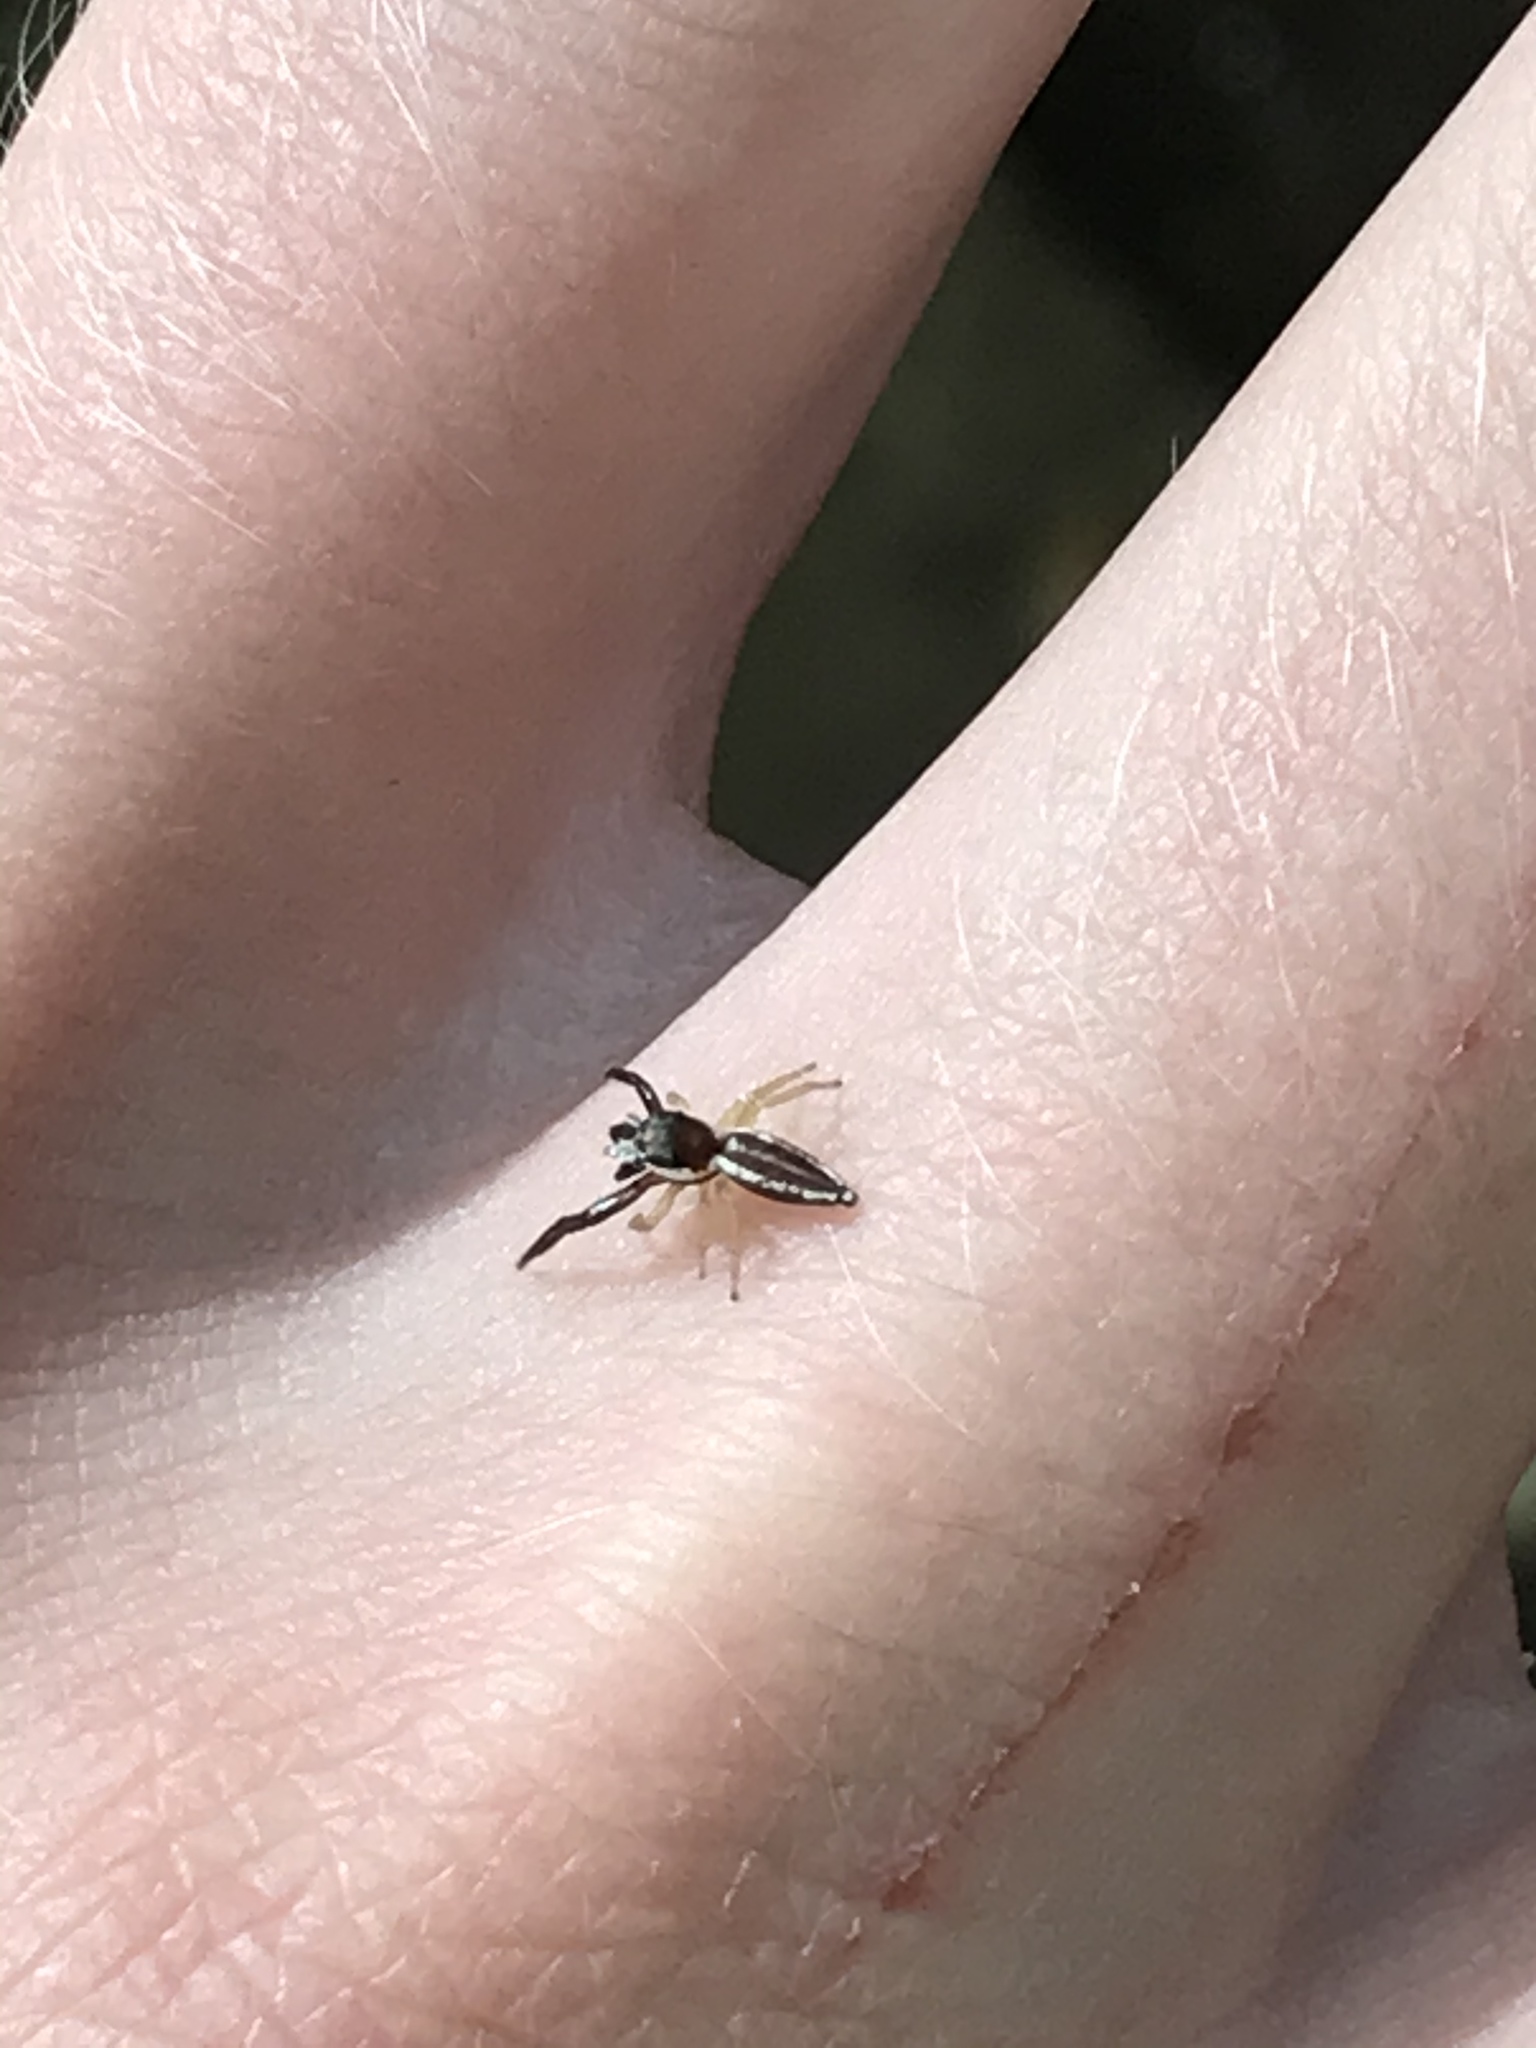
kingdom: Animalia
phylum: Arthropoda
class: Arachnida
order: Araneae
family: Salticidae
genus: Hentzia
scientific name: Hentzia palmarum
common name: Common hentz jumping spider
